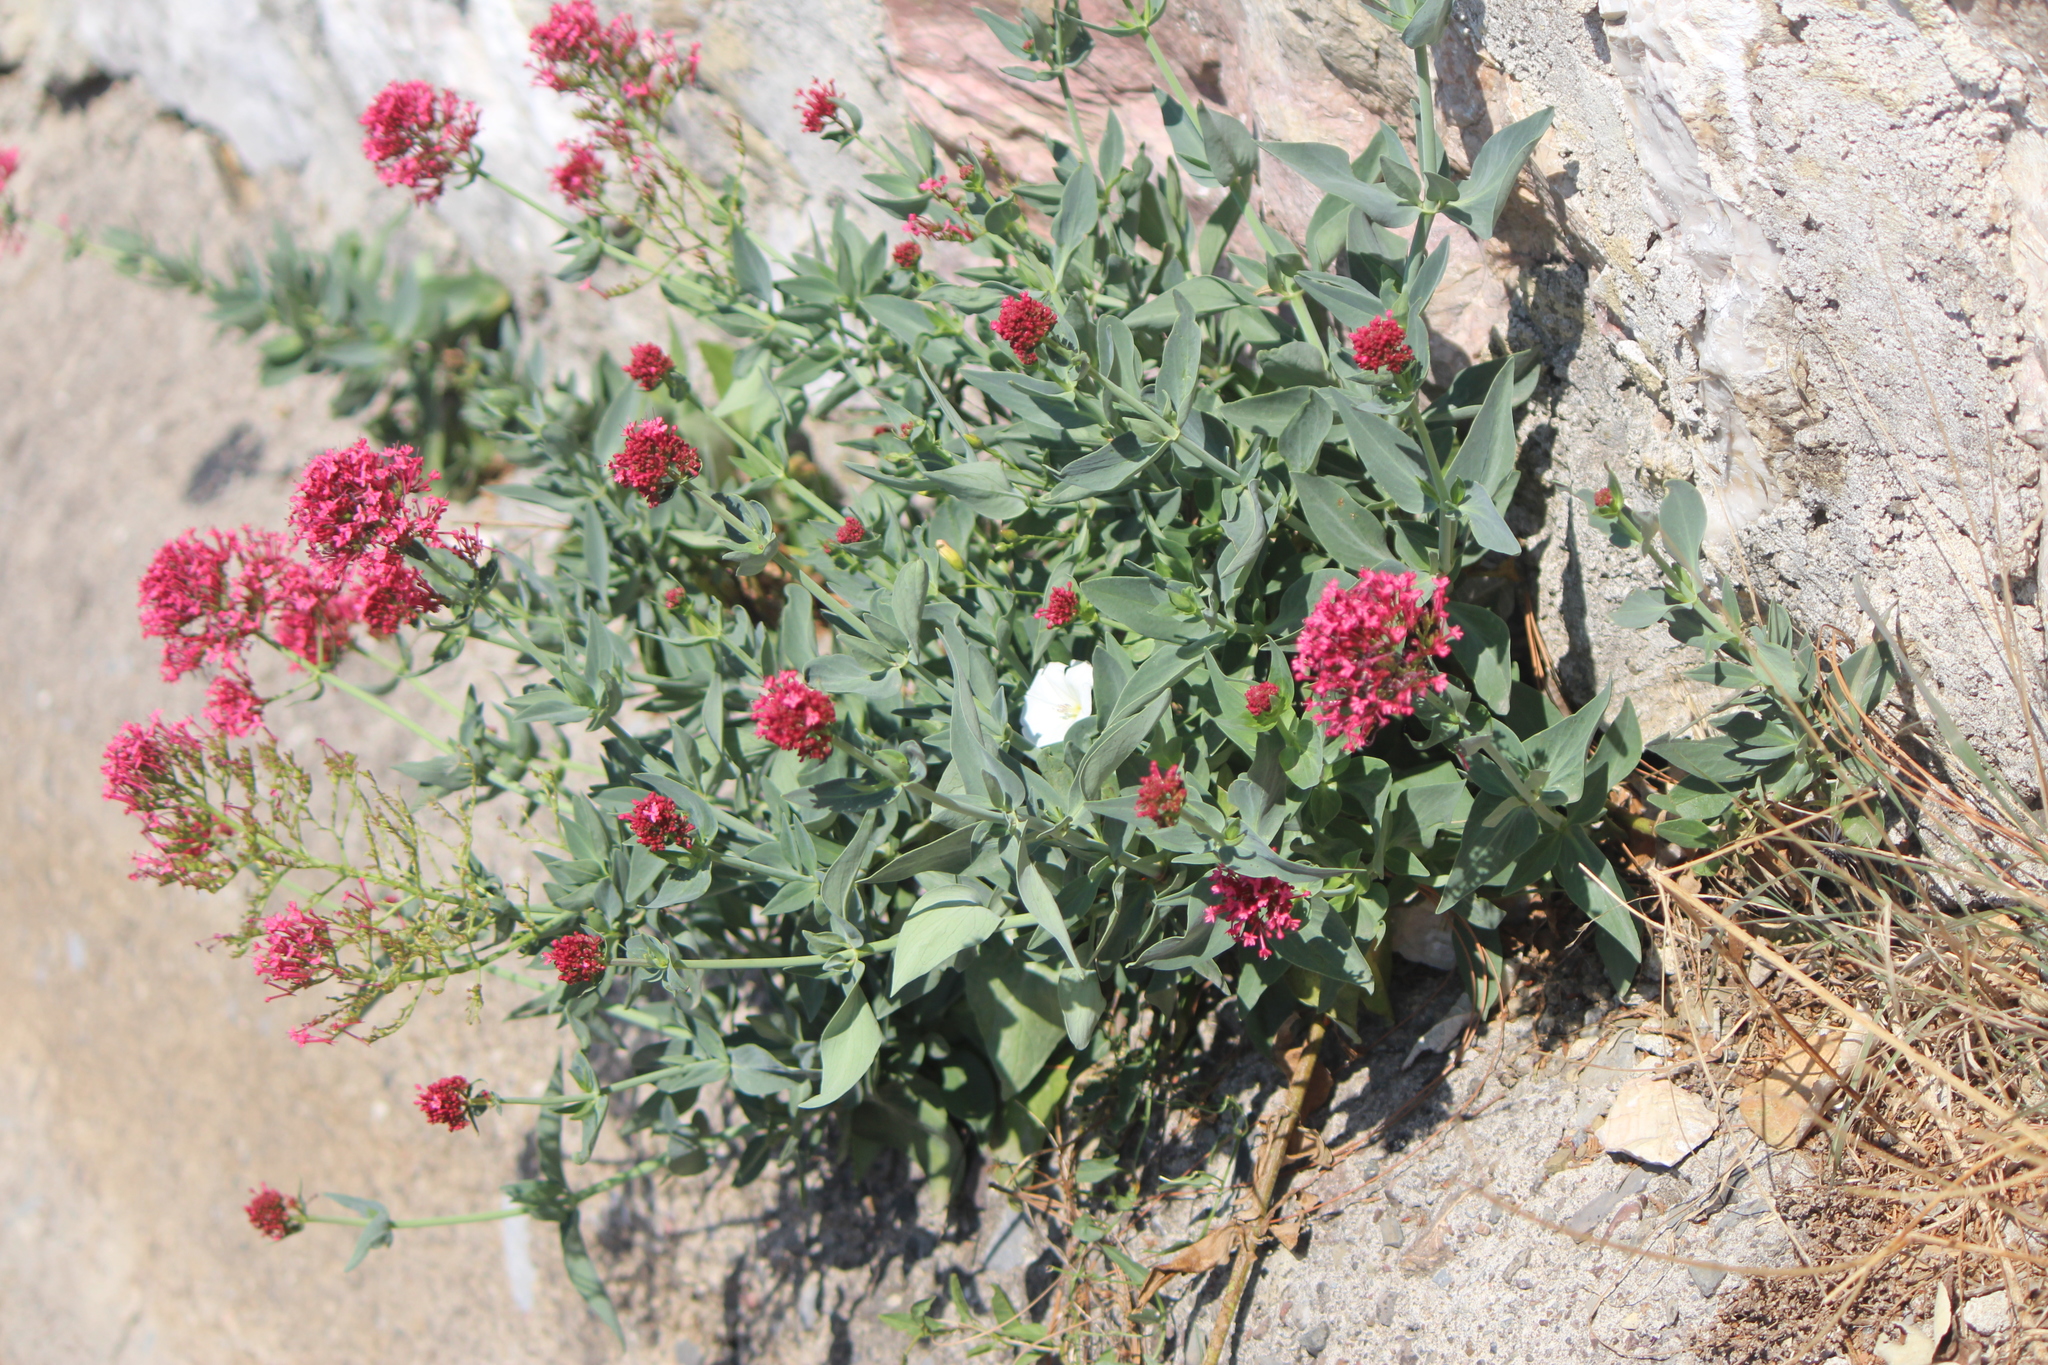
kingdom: Plantae
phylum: Tracheophyta
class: Magnoliopsida
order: Dipsacales
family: Caprifoliaceae
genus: Centranthus
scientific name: Centranthus ruber
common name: Red valerian
